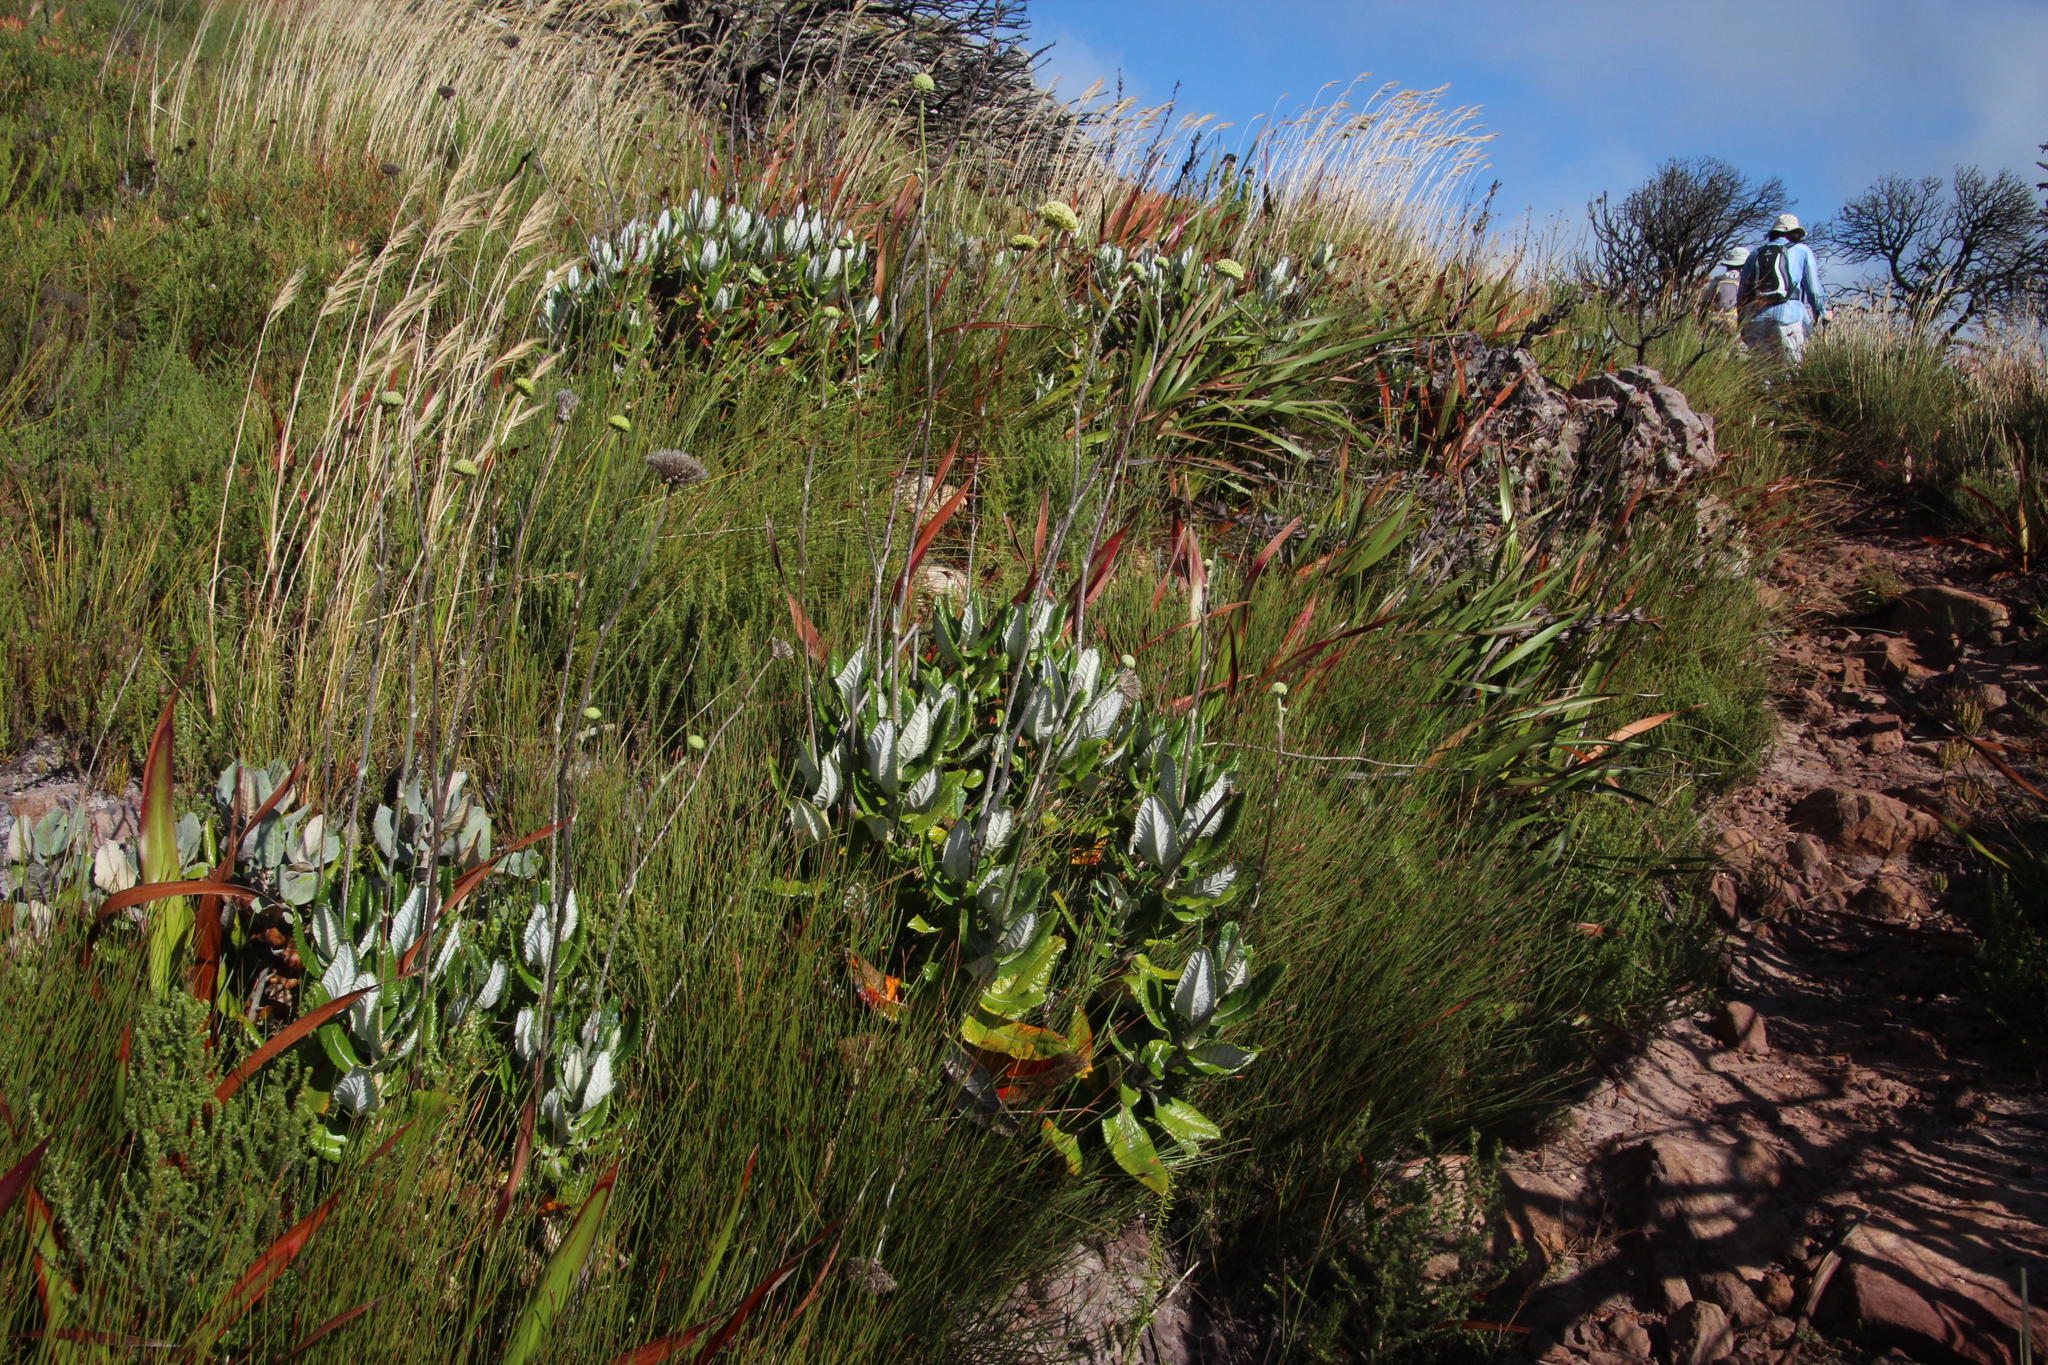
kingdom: Plantae
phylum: Tracheophyta
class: Magnoliopsida
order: Apiales
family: Apiaceae
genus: Hermas
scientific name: Hermas villosa
